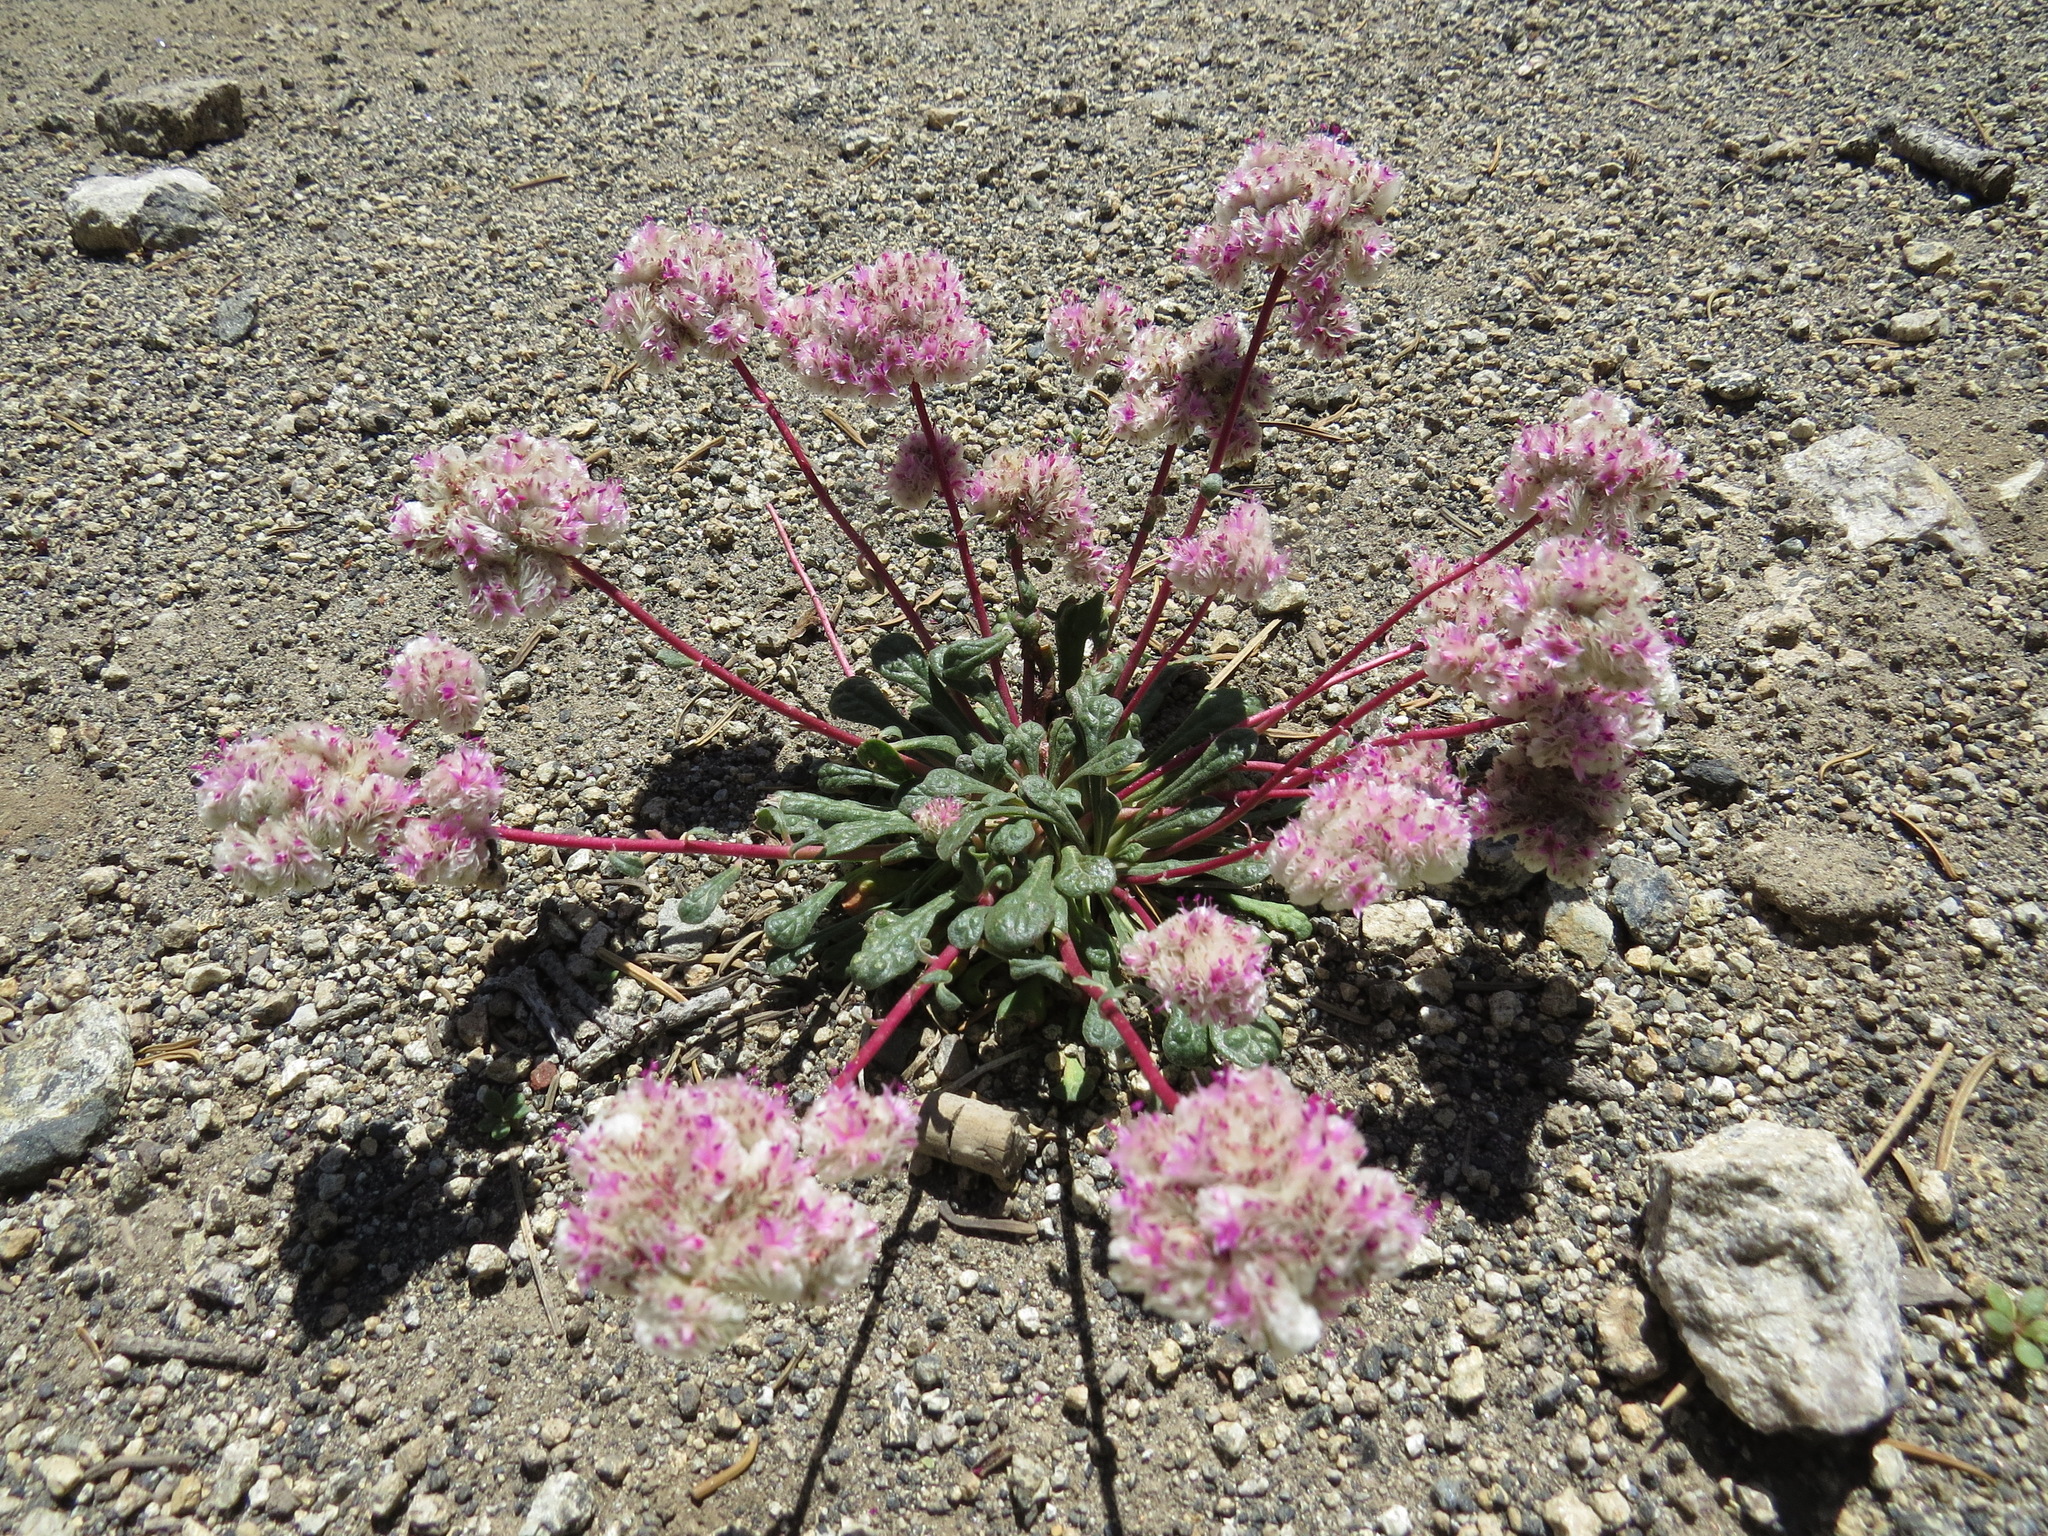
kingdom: Plantae
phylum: Tracheophyta
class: Magnoliopsida
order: Caryophyllales
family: Montiaceae
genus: Calyptridium
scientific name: Calyptridium monospermum
